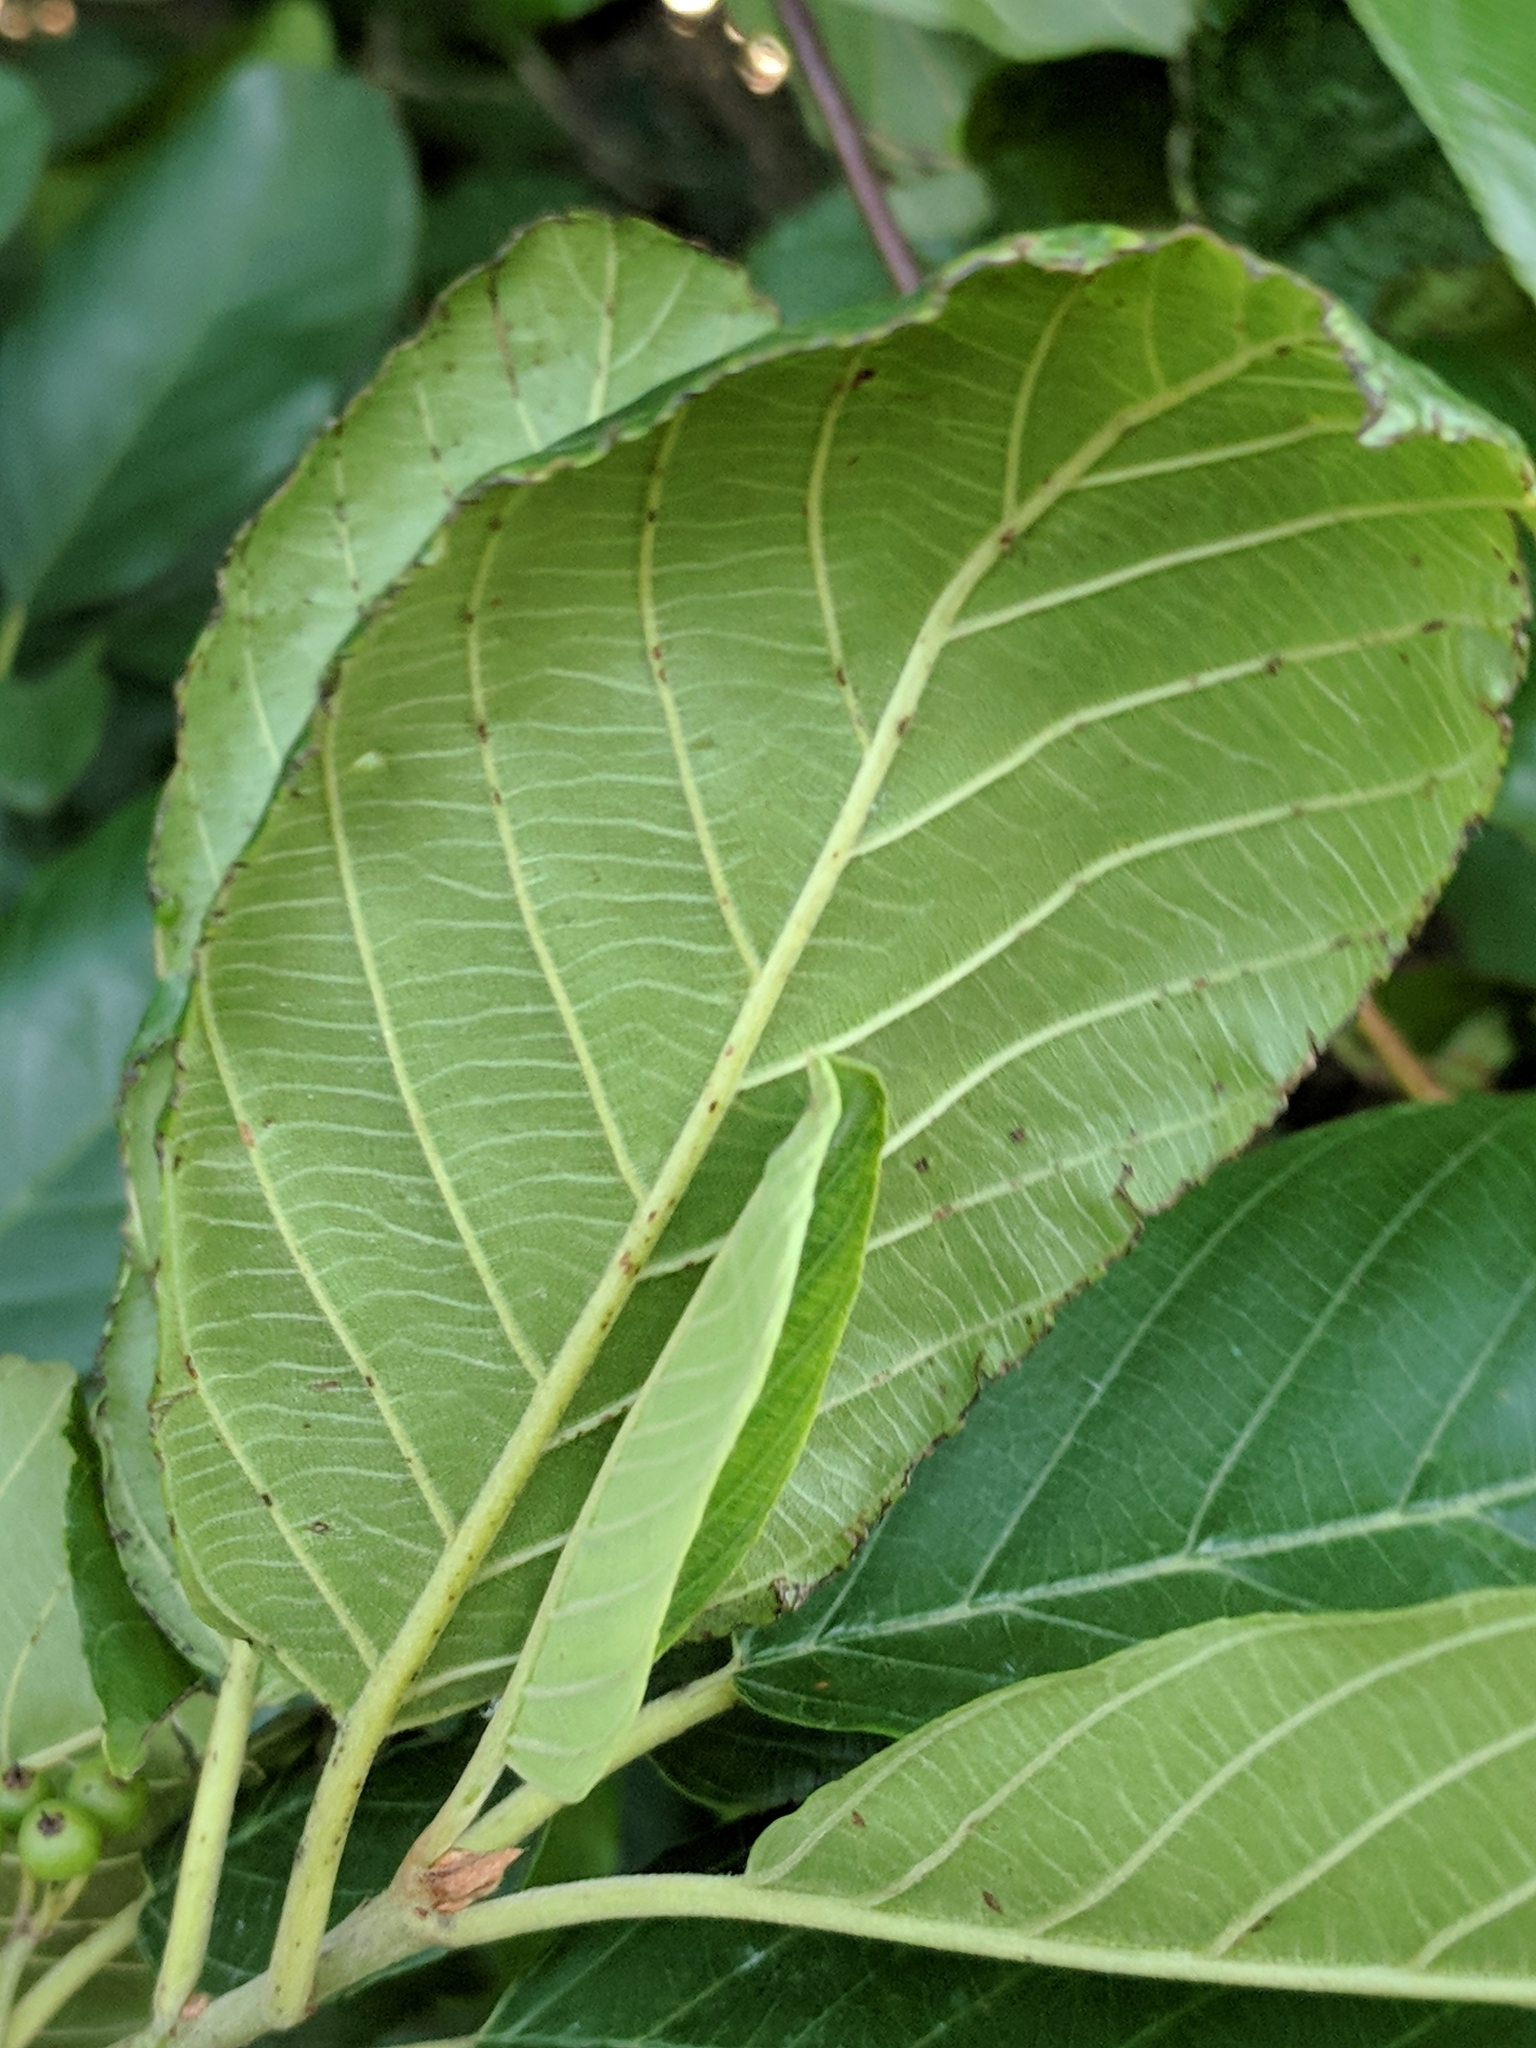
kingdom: Plantae
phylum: Tracheophyta
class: Magnoliopsida
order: Rosales
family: Rhamnaceae
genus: Frangula
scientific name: Frangula caroliniana
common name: Carolina buckthorn
